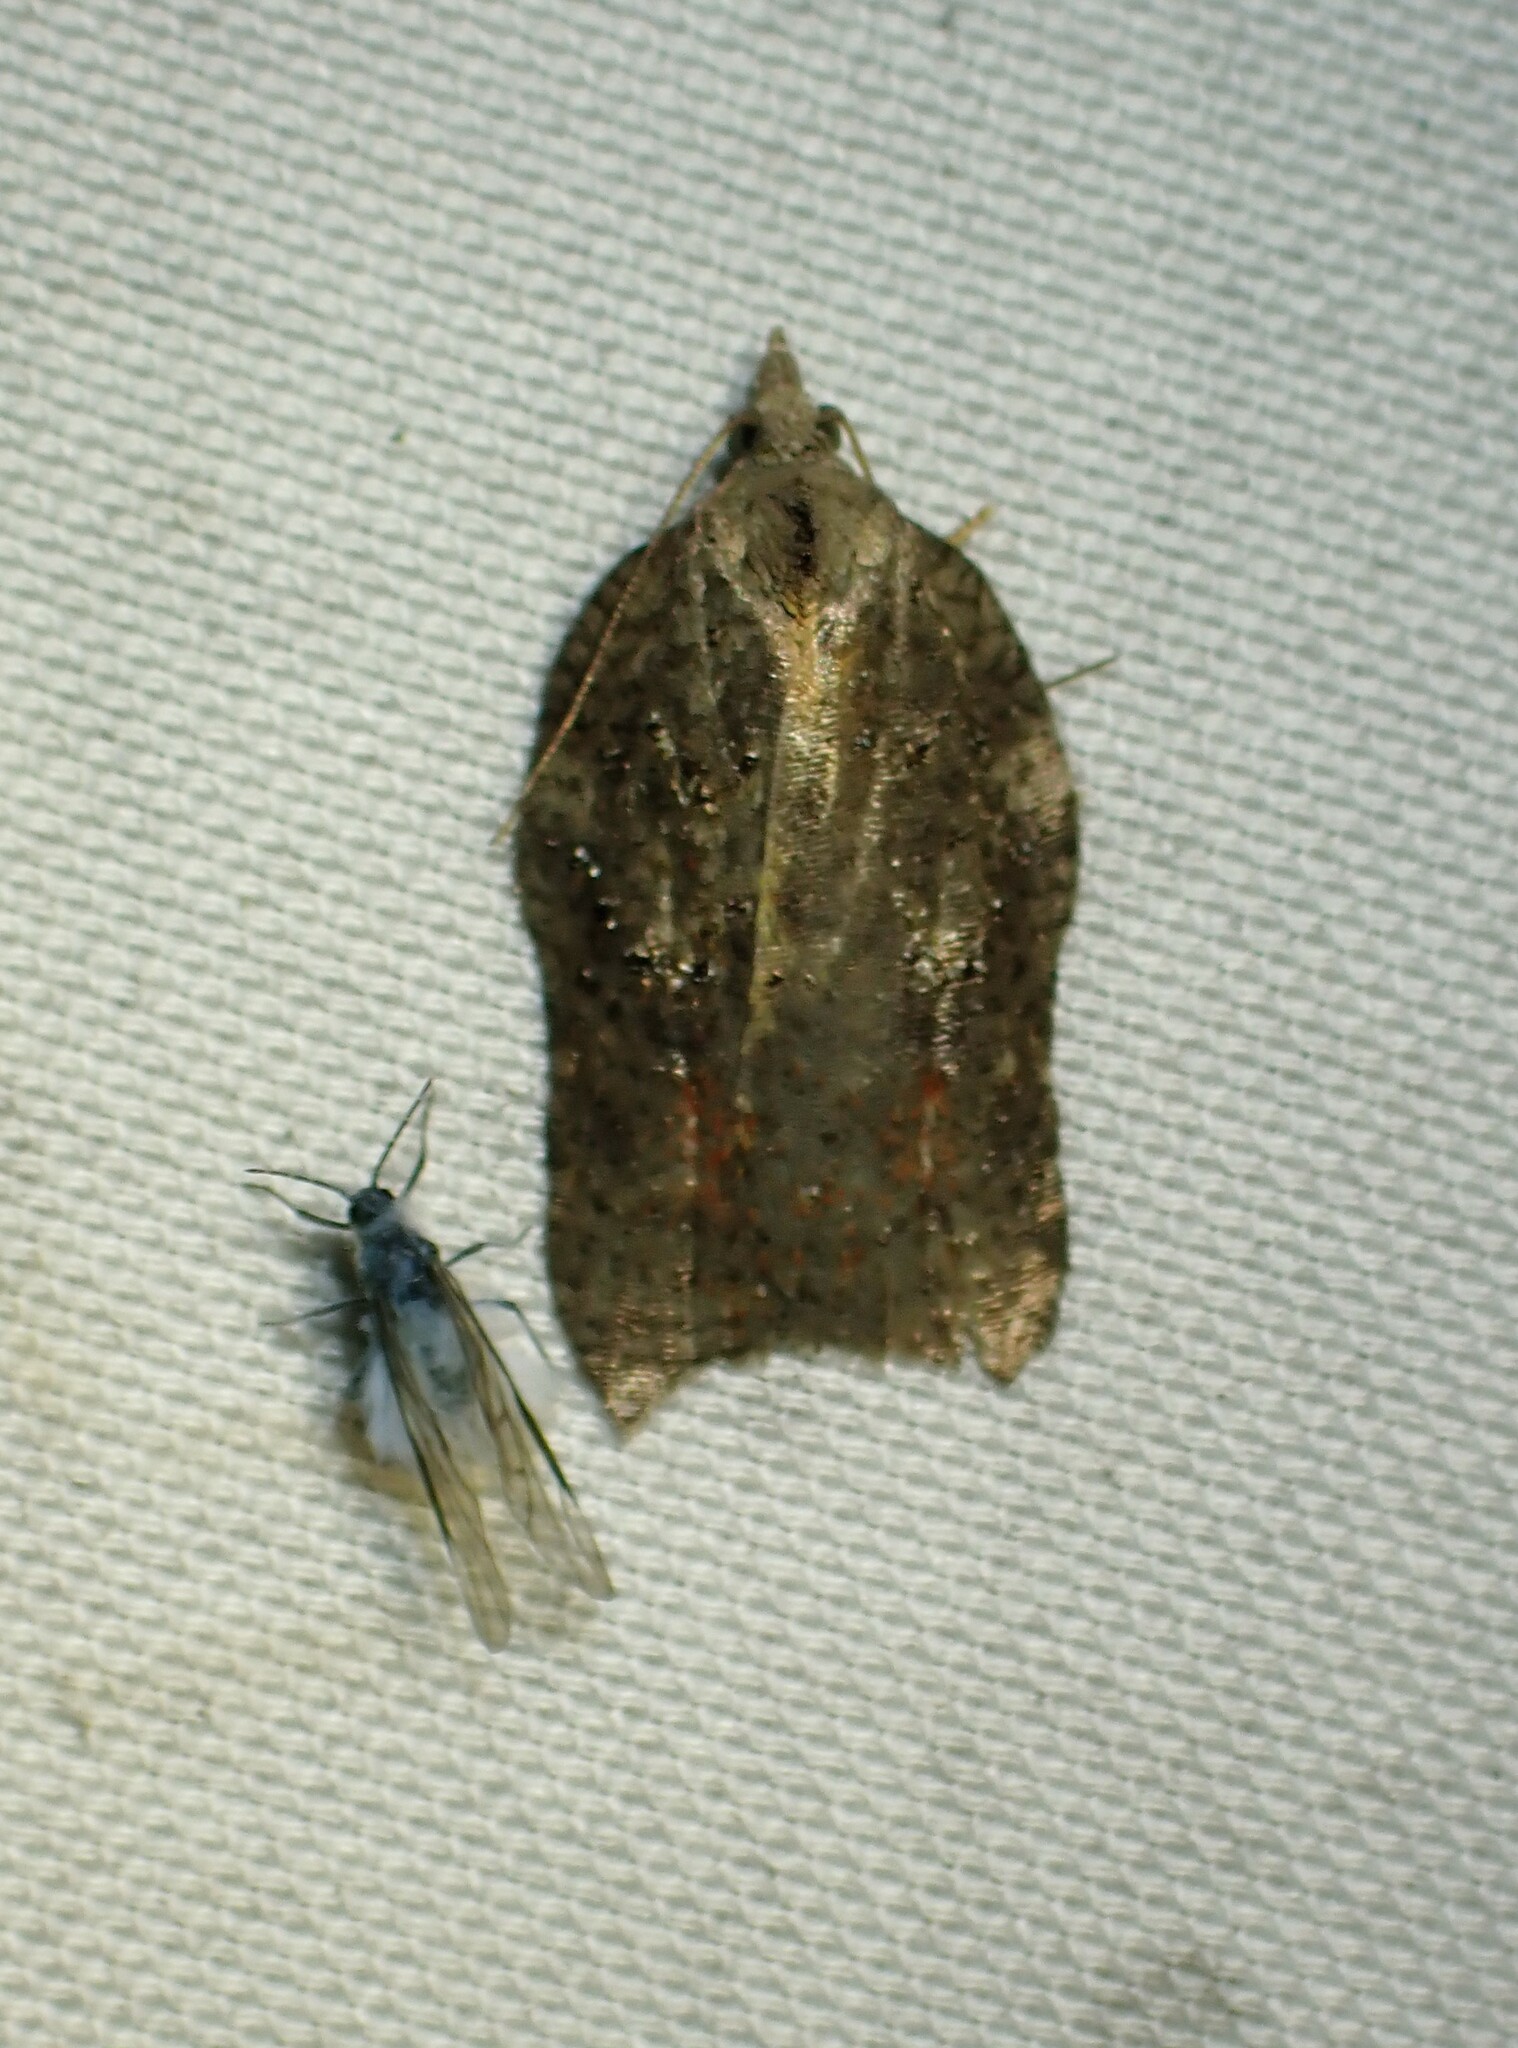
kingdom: Animalia
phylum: Arthropoda
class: Insecta
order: Lepidoptera
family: Tortricidae
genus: Acleris
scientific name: Acleris effractana
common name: Hook-winged tortrix moth
